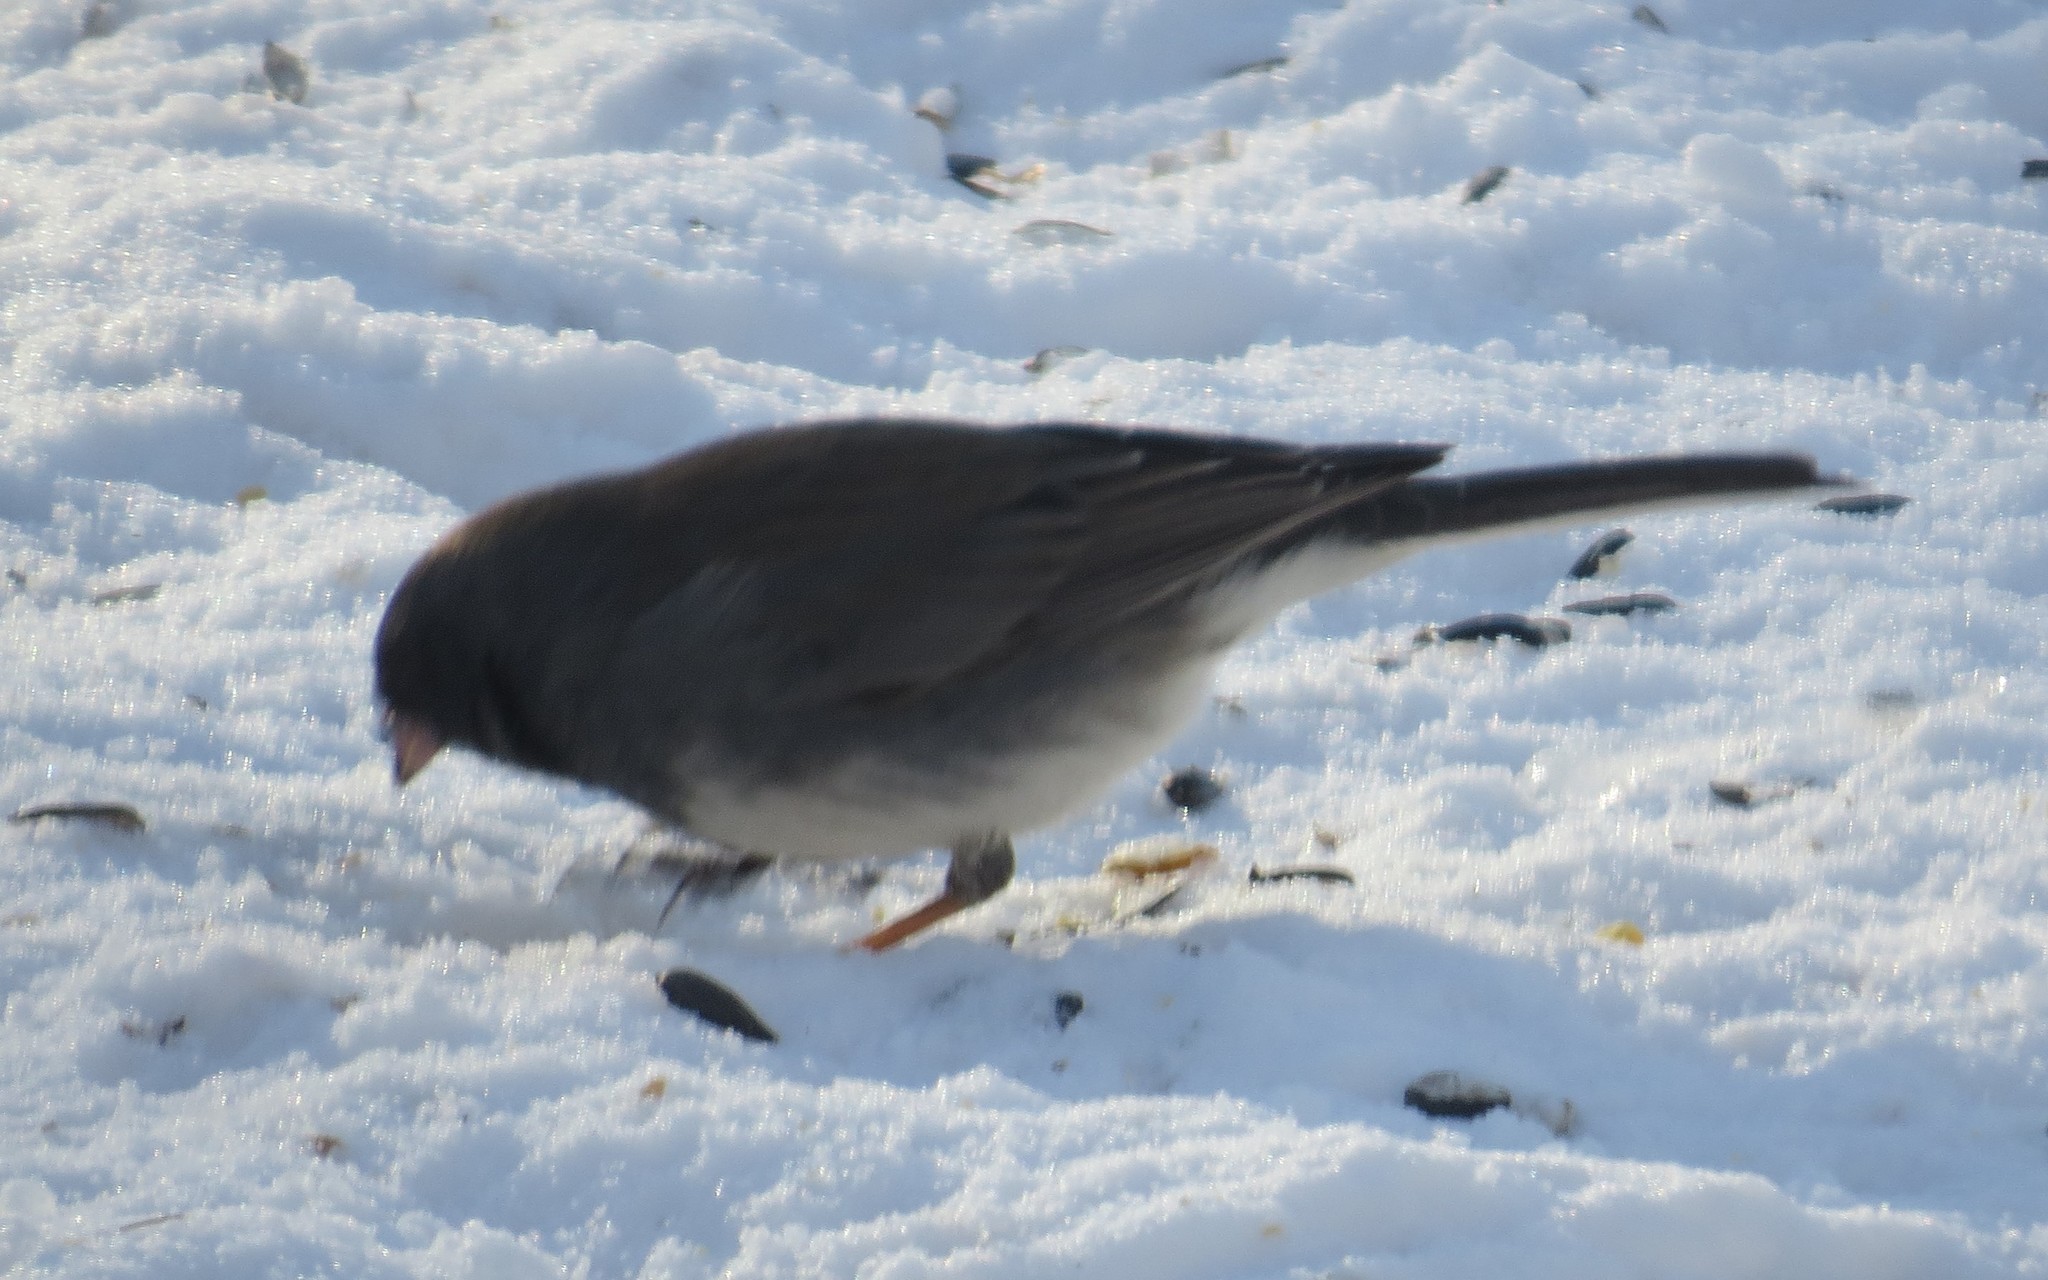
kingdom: Animalia
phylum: Chordata
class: Aves
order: Passeriformes
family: Passerellidae
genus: Junco
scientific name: Junco hyemalis
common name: Dark-eyed junco
